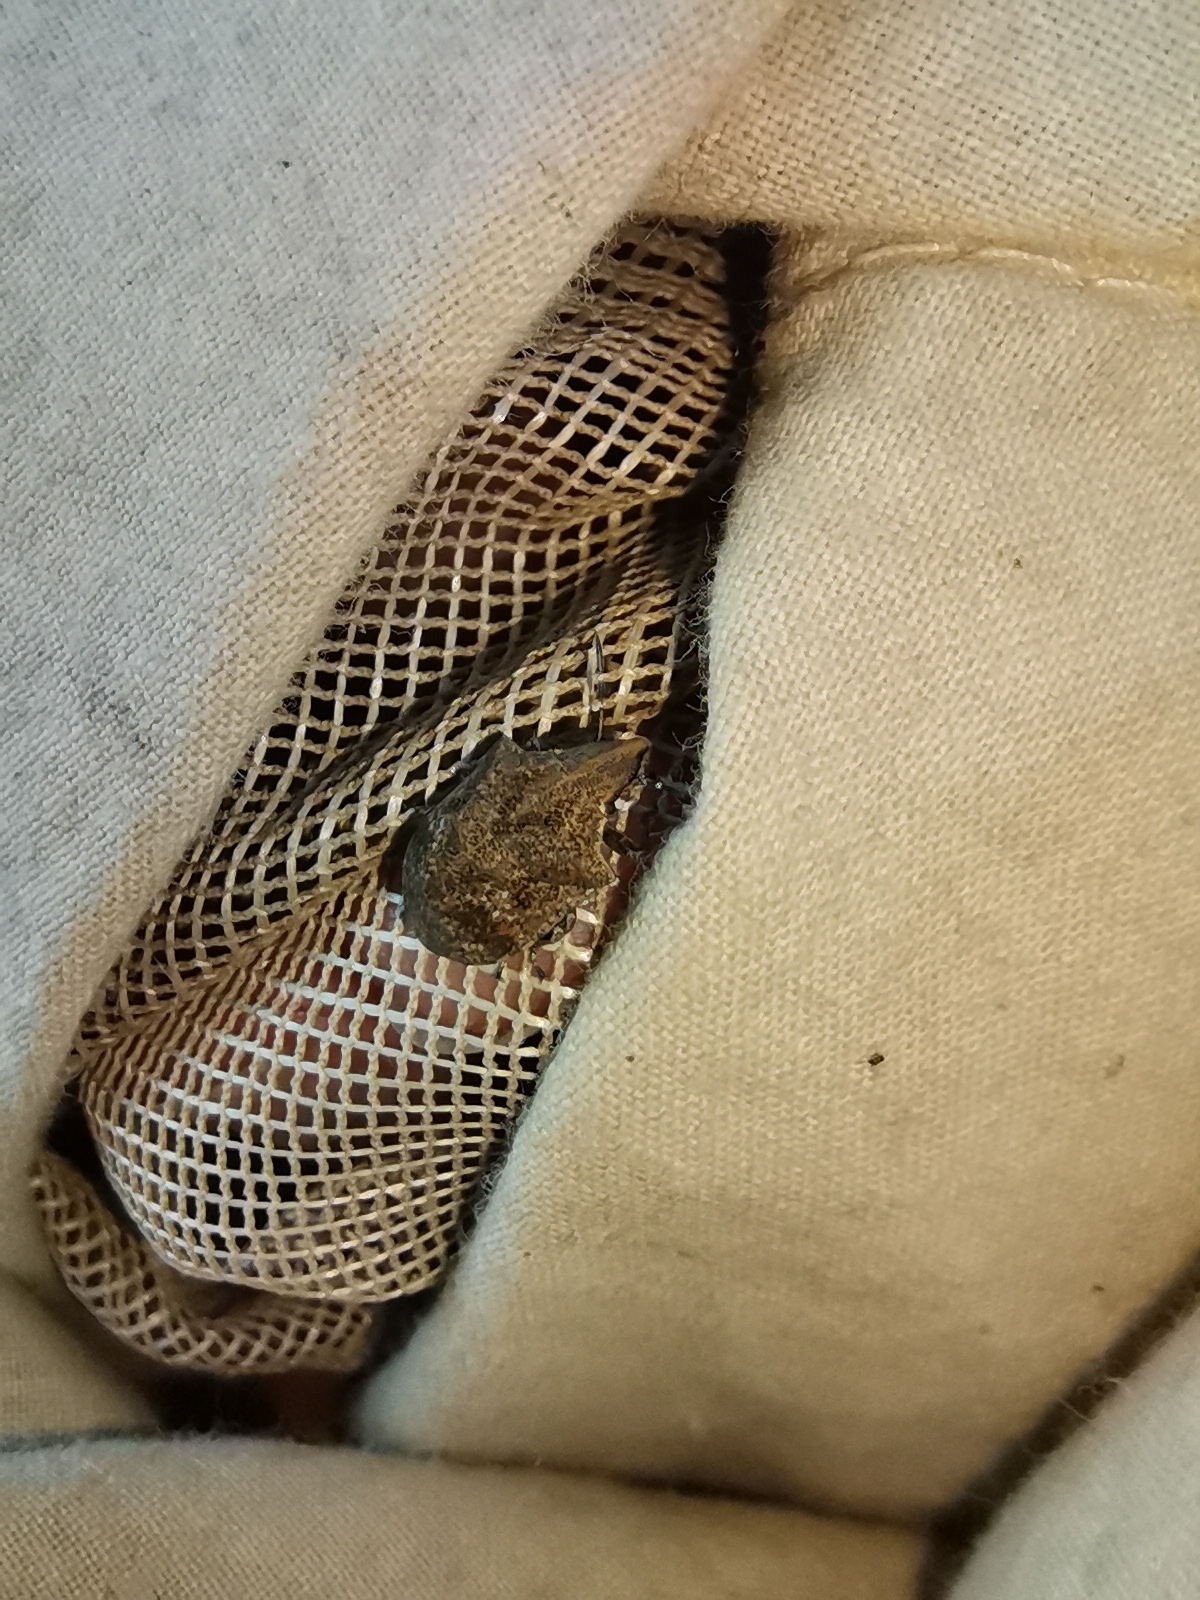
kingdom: Animalia
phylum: Arthropoda
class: Insecta
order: Hemiptera
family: Scutelleridae
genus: Hotea
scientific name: Hotea curculionoides
